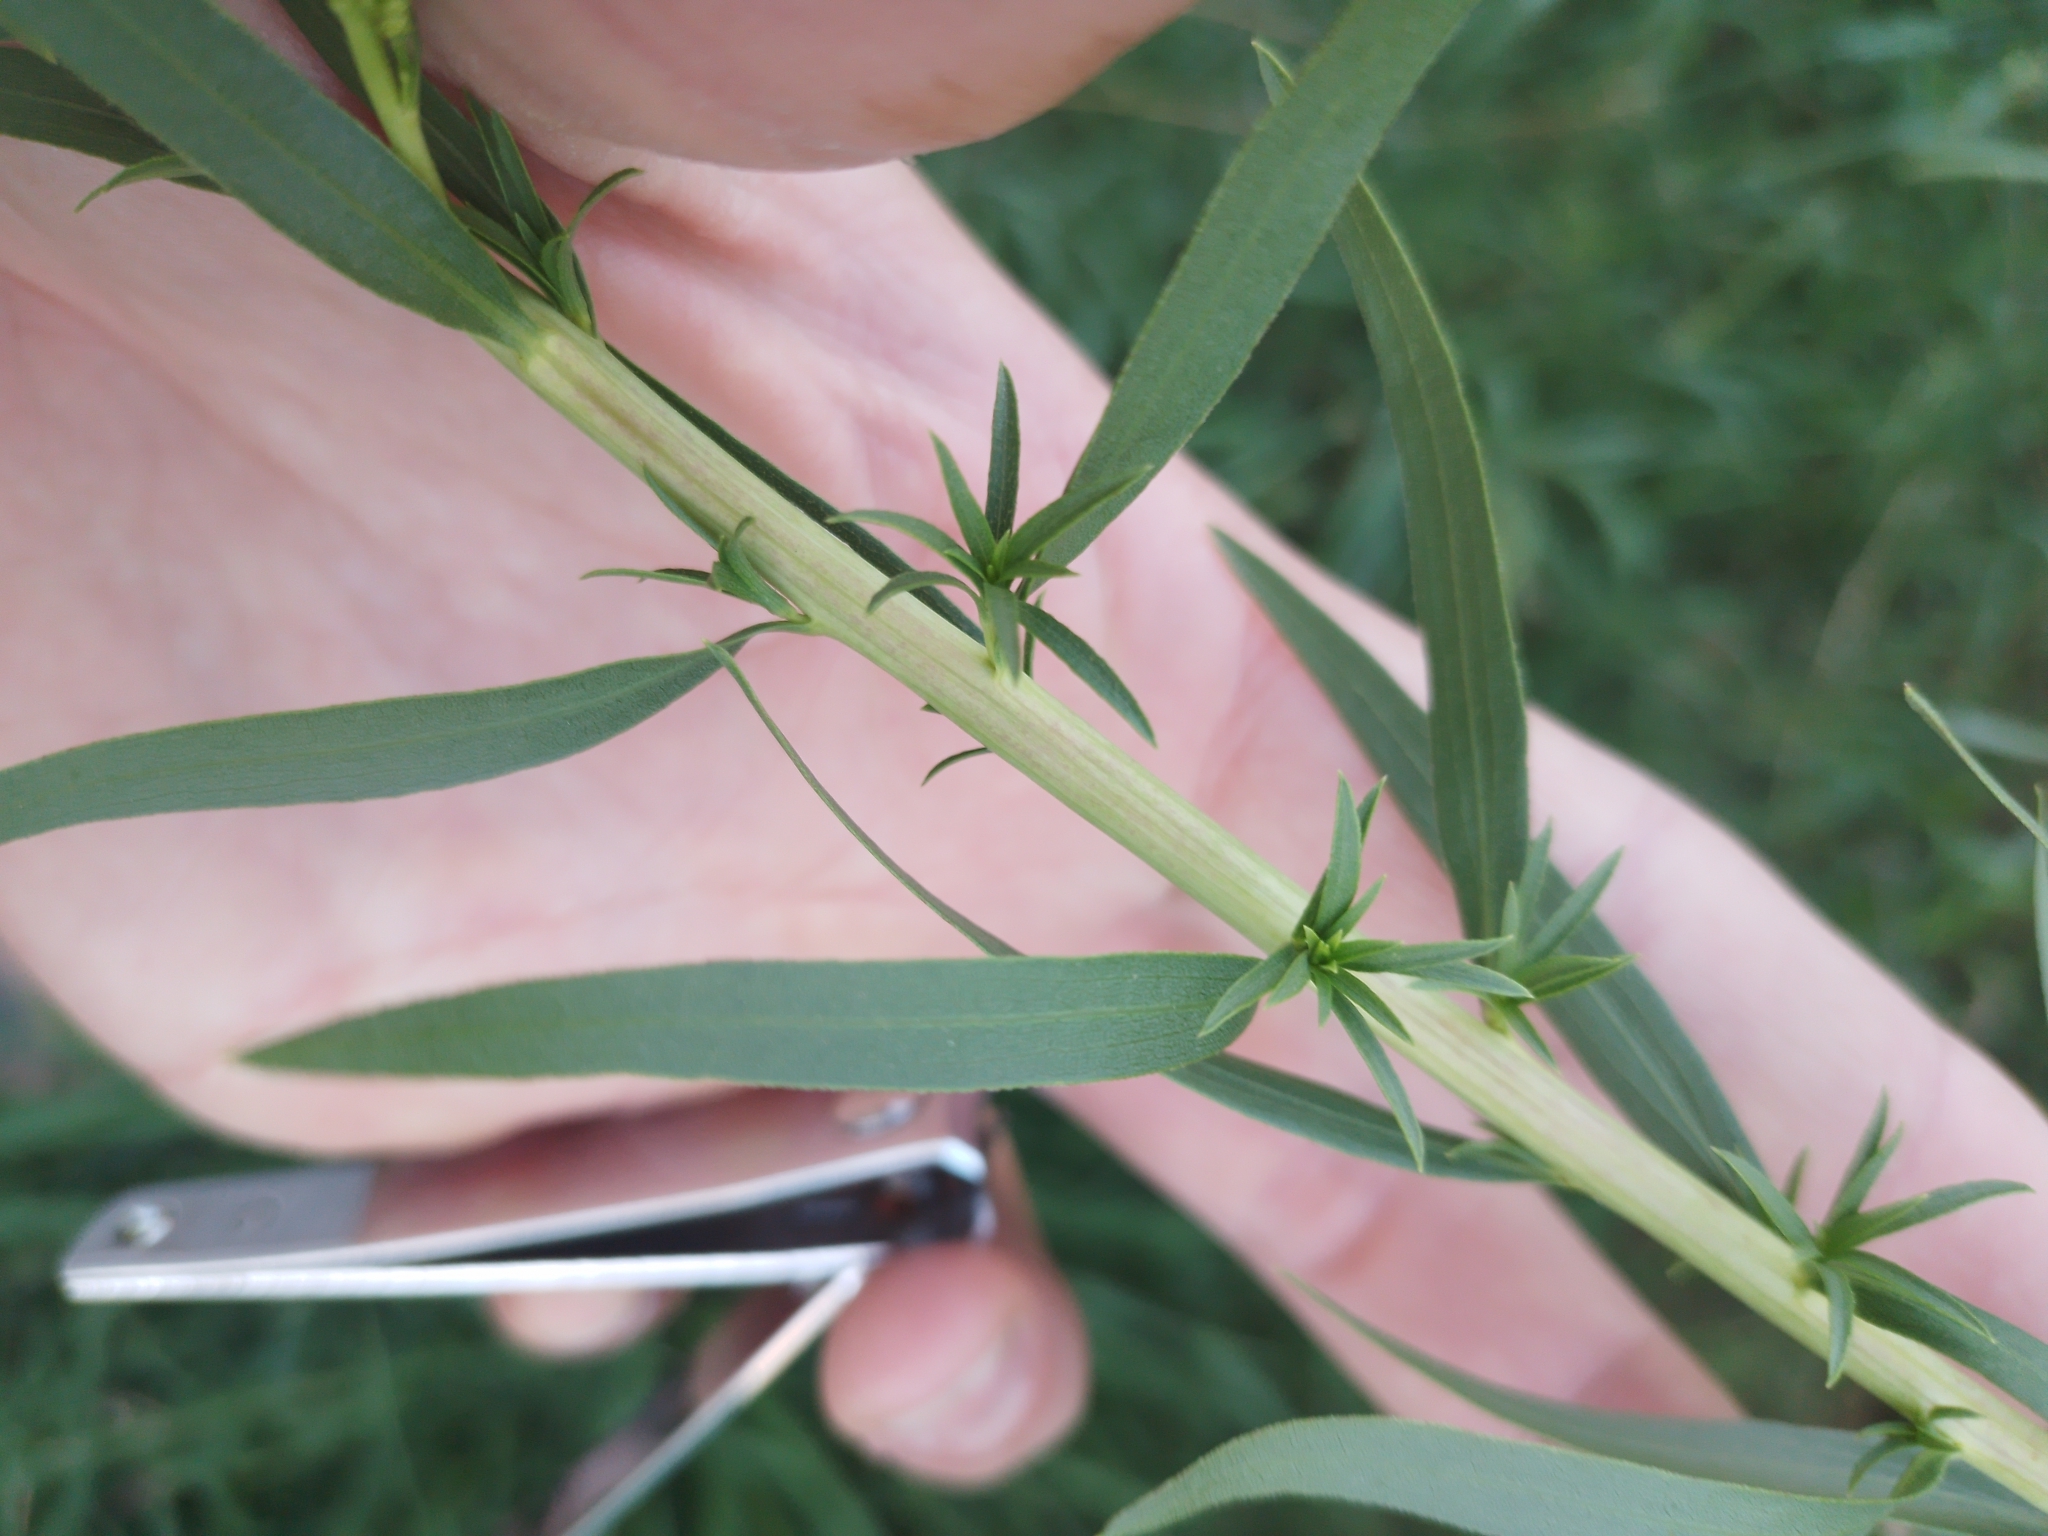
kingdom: Plantae
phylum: Tracheophyta
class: Magnoliopsida
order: Asterales
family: Asteraceae
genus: Solidago
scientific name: Solidago chilensis
